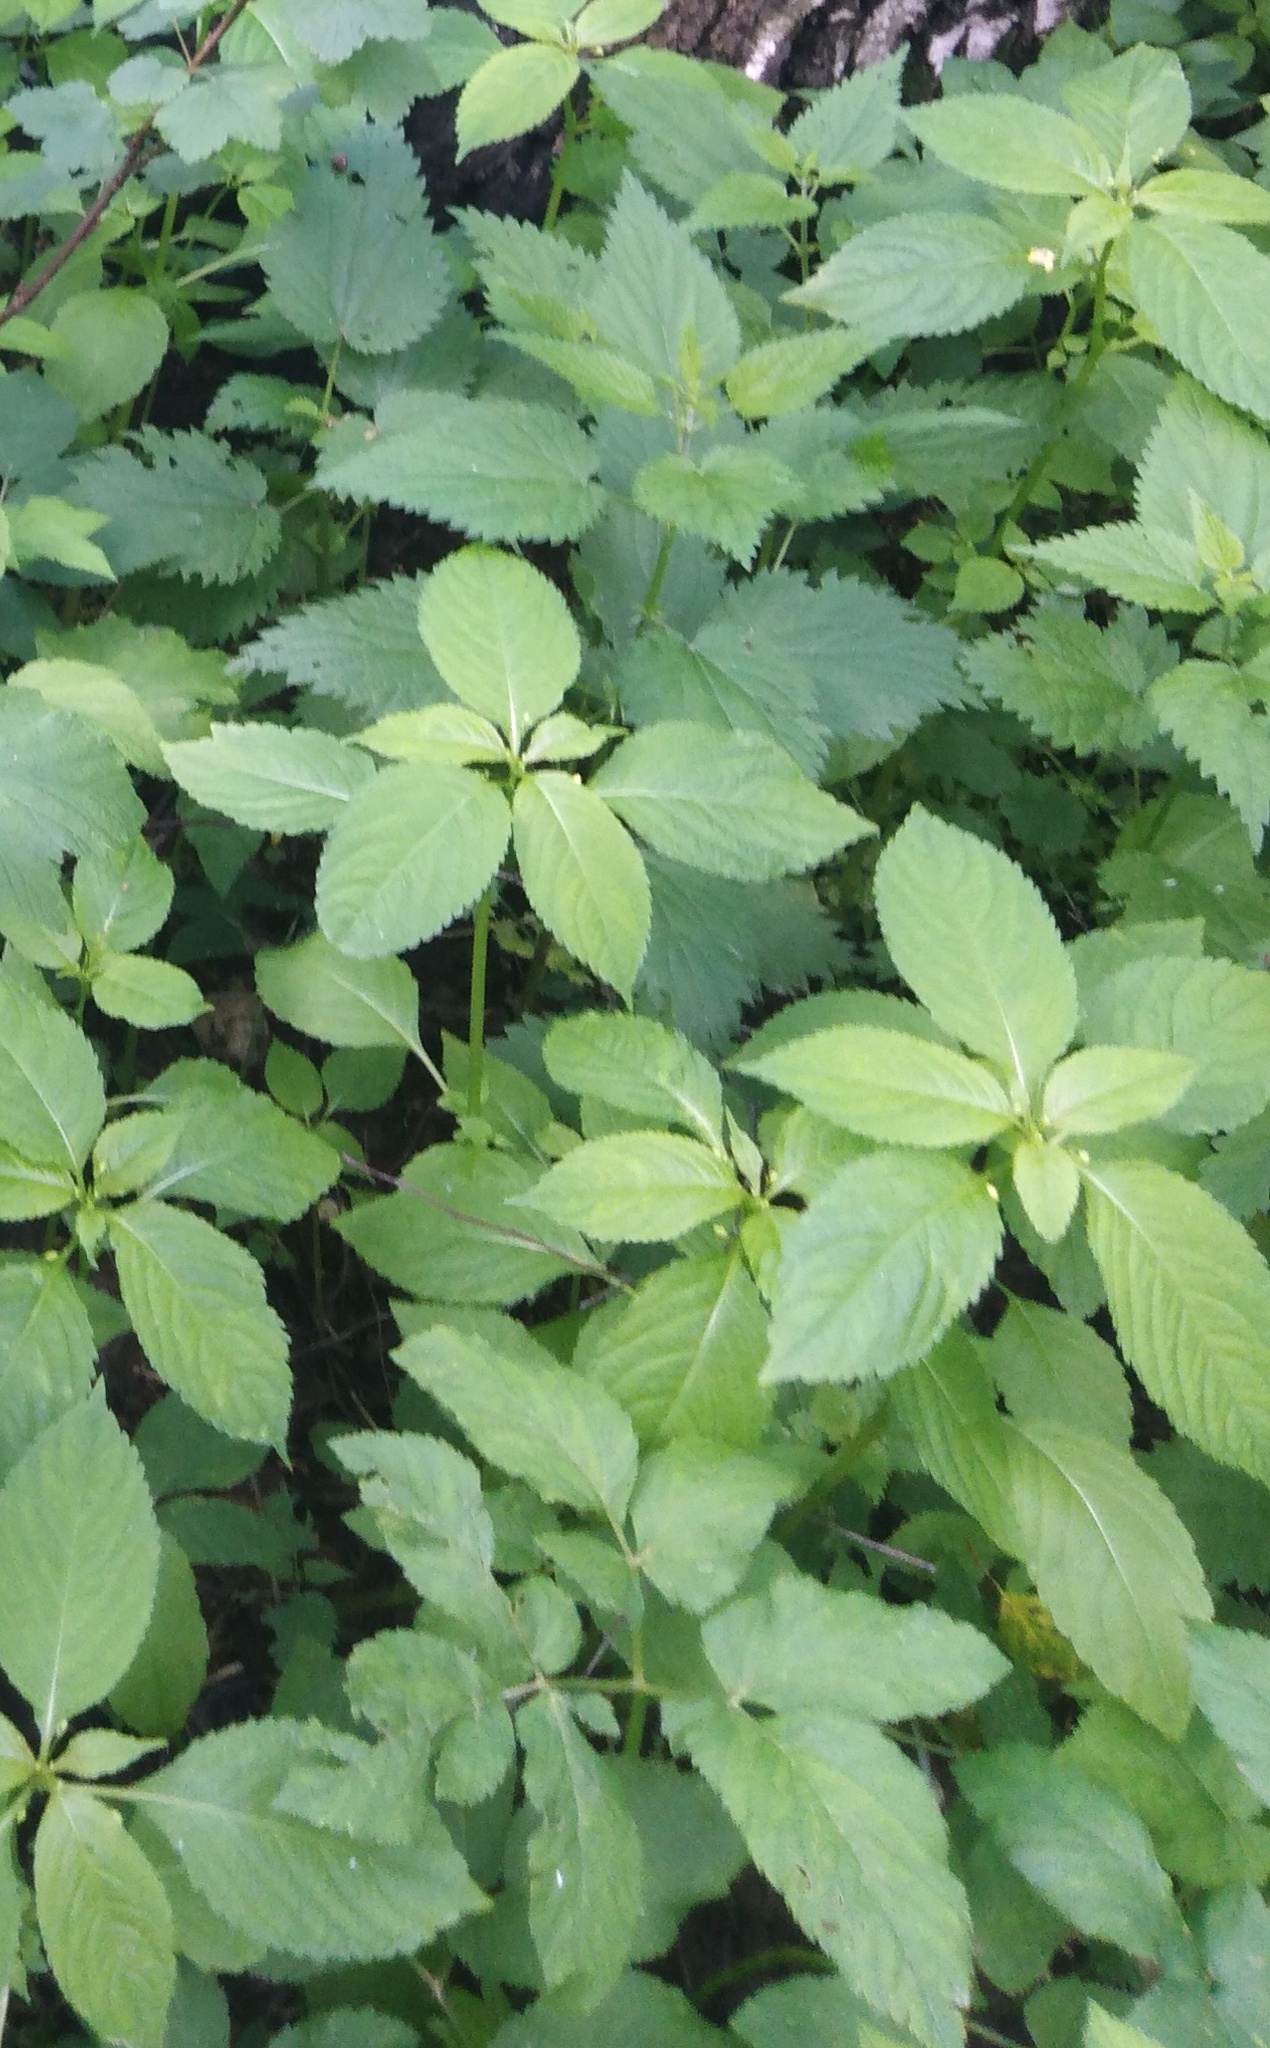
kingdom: Plantae
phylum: Tracheophyta
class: Magnoliopsida
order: Ericales
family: Balsaminaceae
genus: Impatiens
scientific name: Impatiens parviflora
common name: Small balsam
